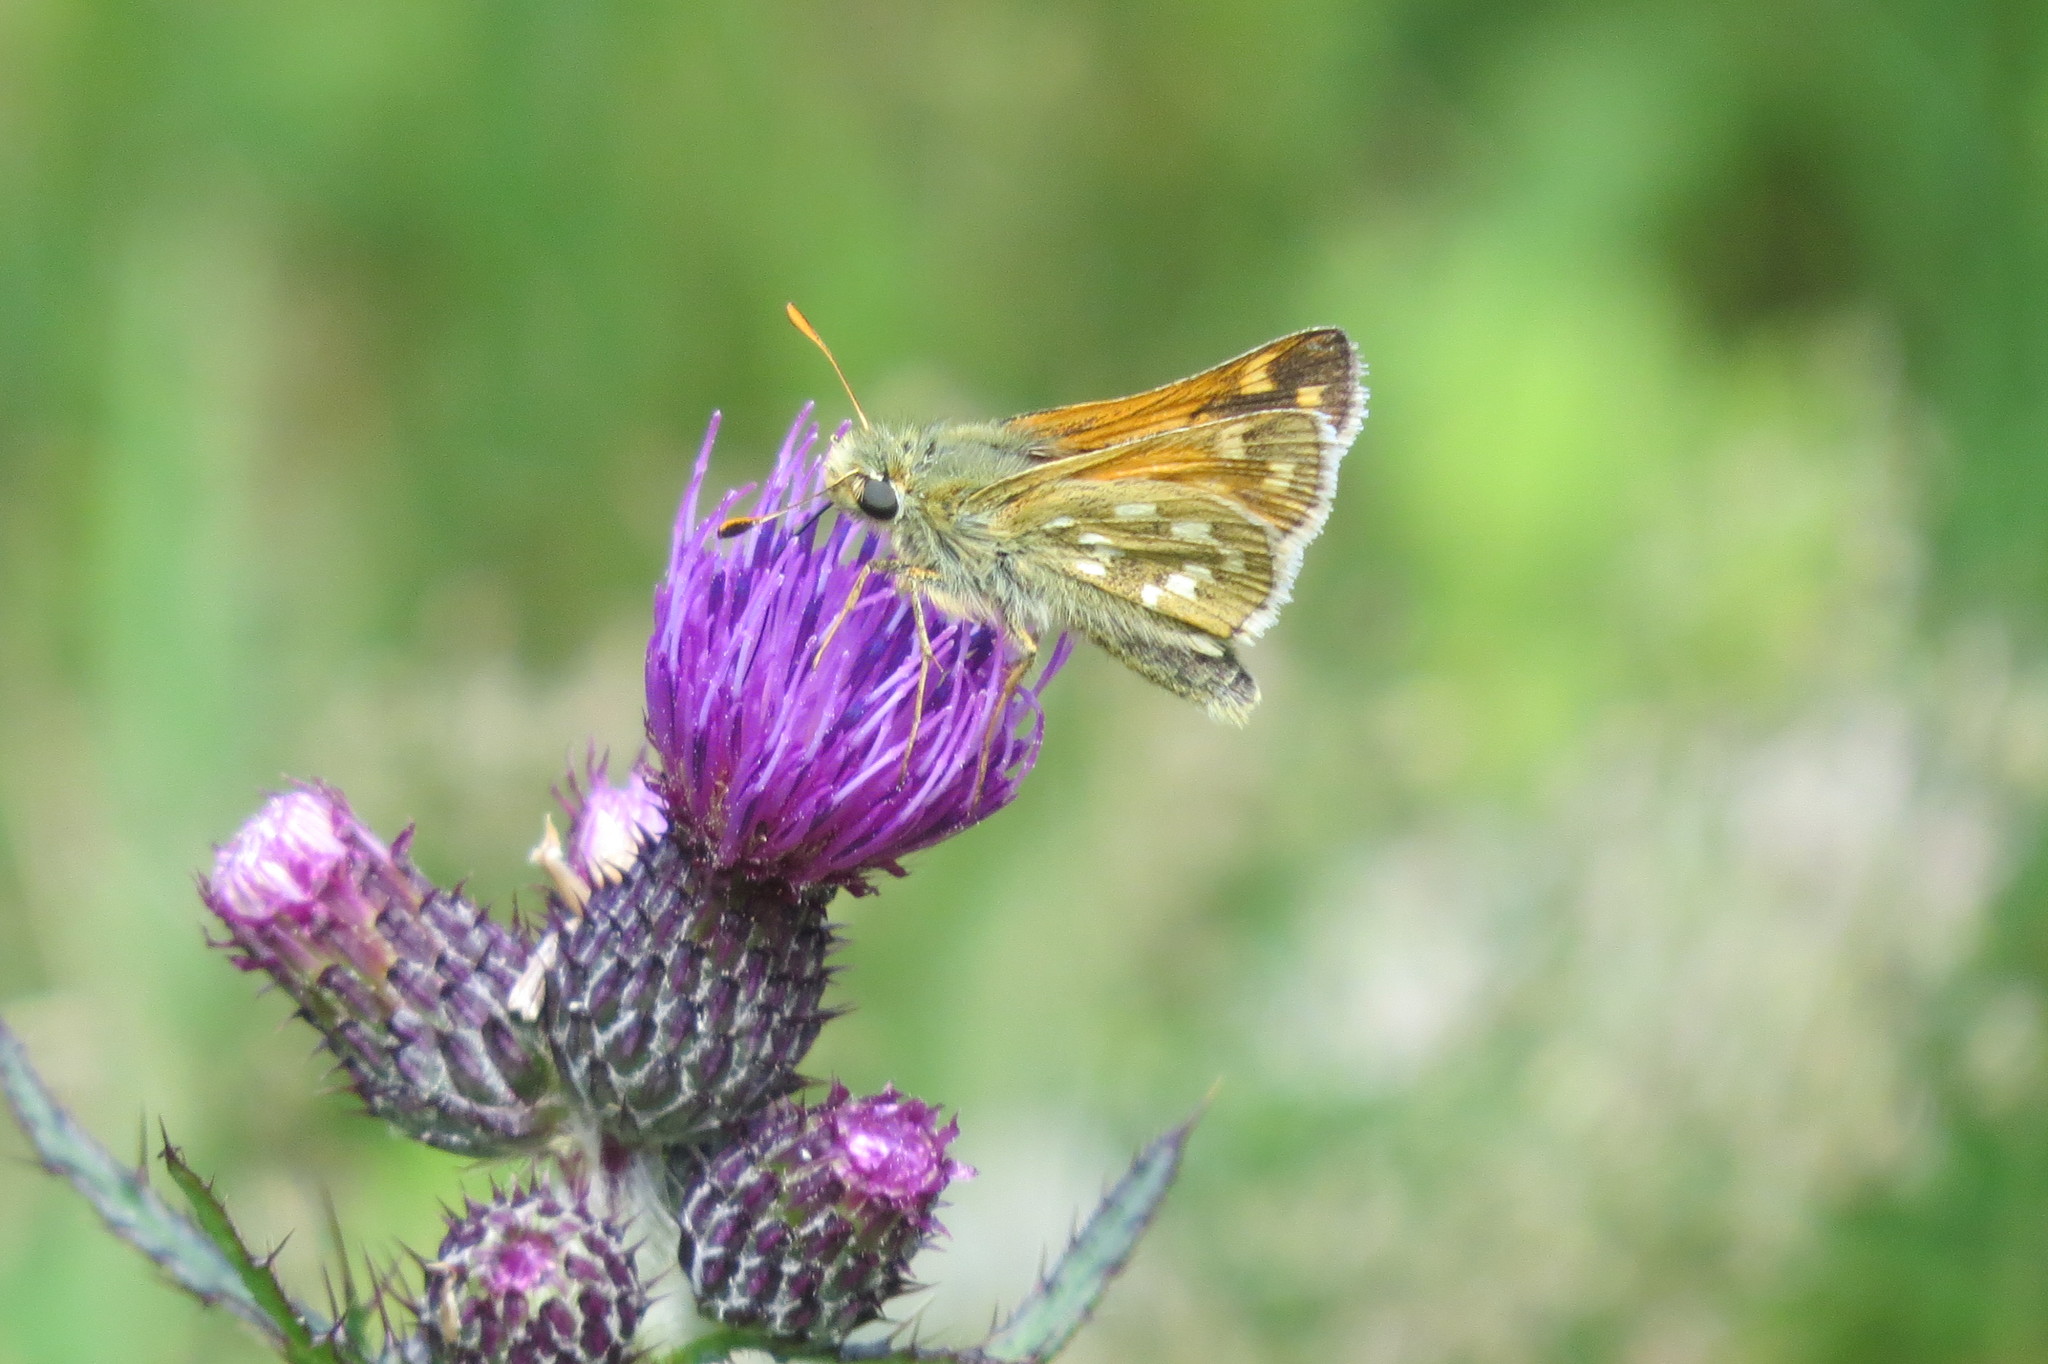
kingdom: Animalia
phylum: Arthropoda
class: Insecta
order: Lepidoptera
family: Hesperiidae
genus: Hesperia
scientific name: Hesperia comma
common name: Common branded skipper
